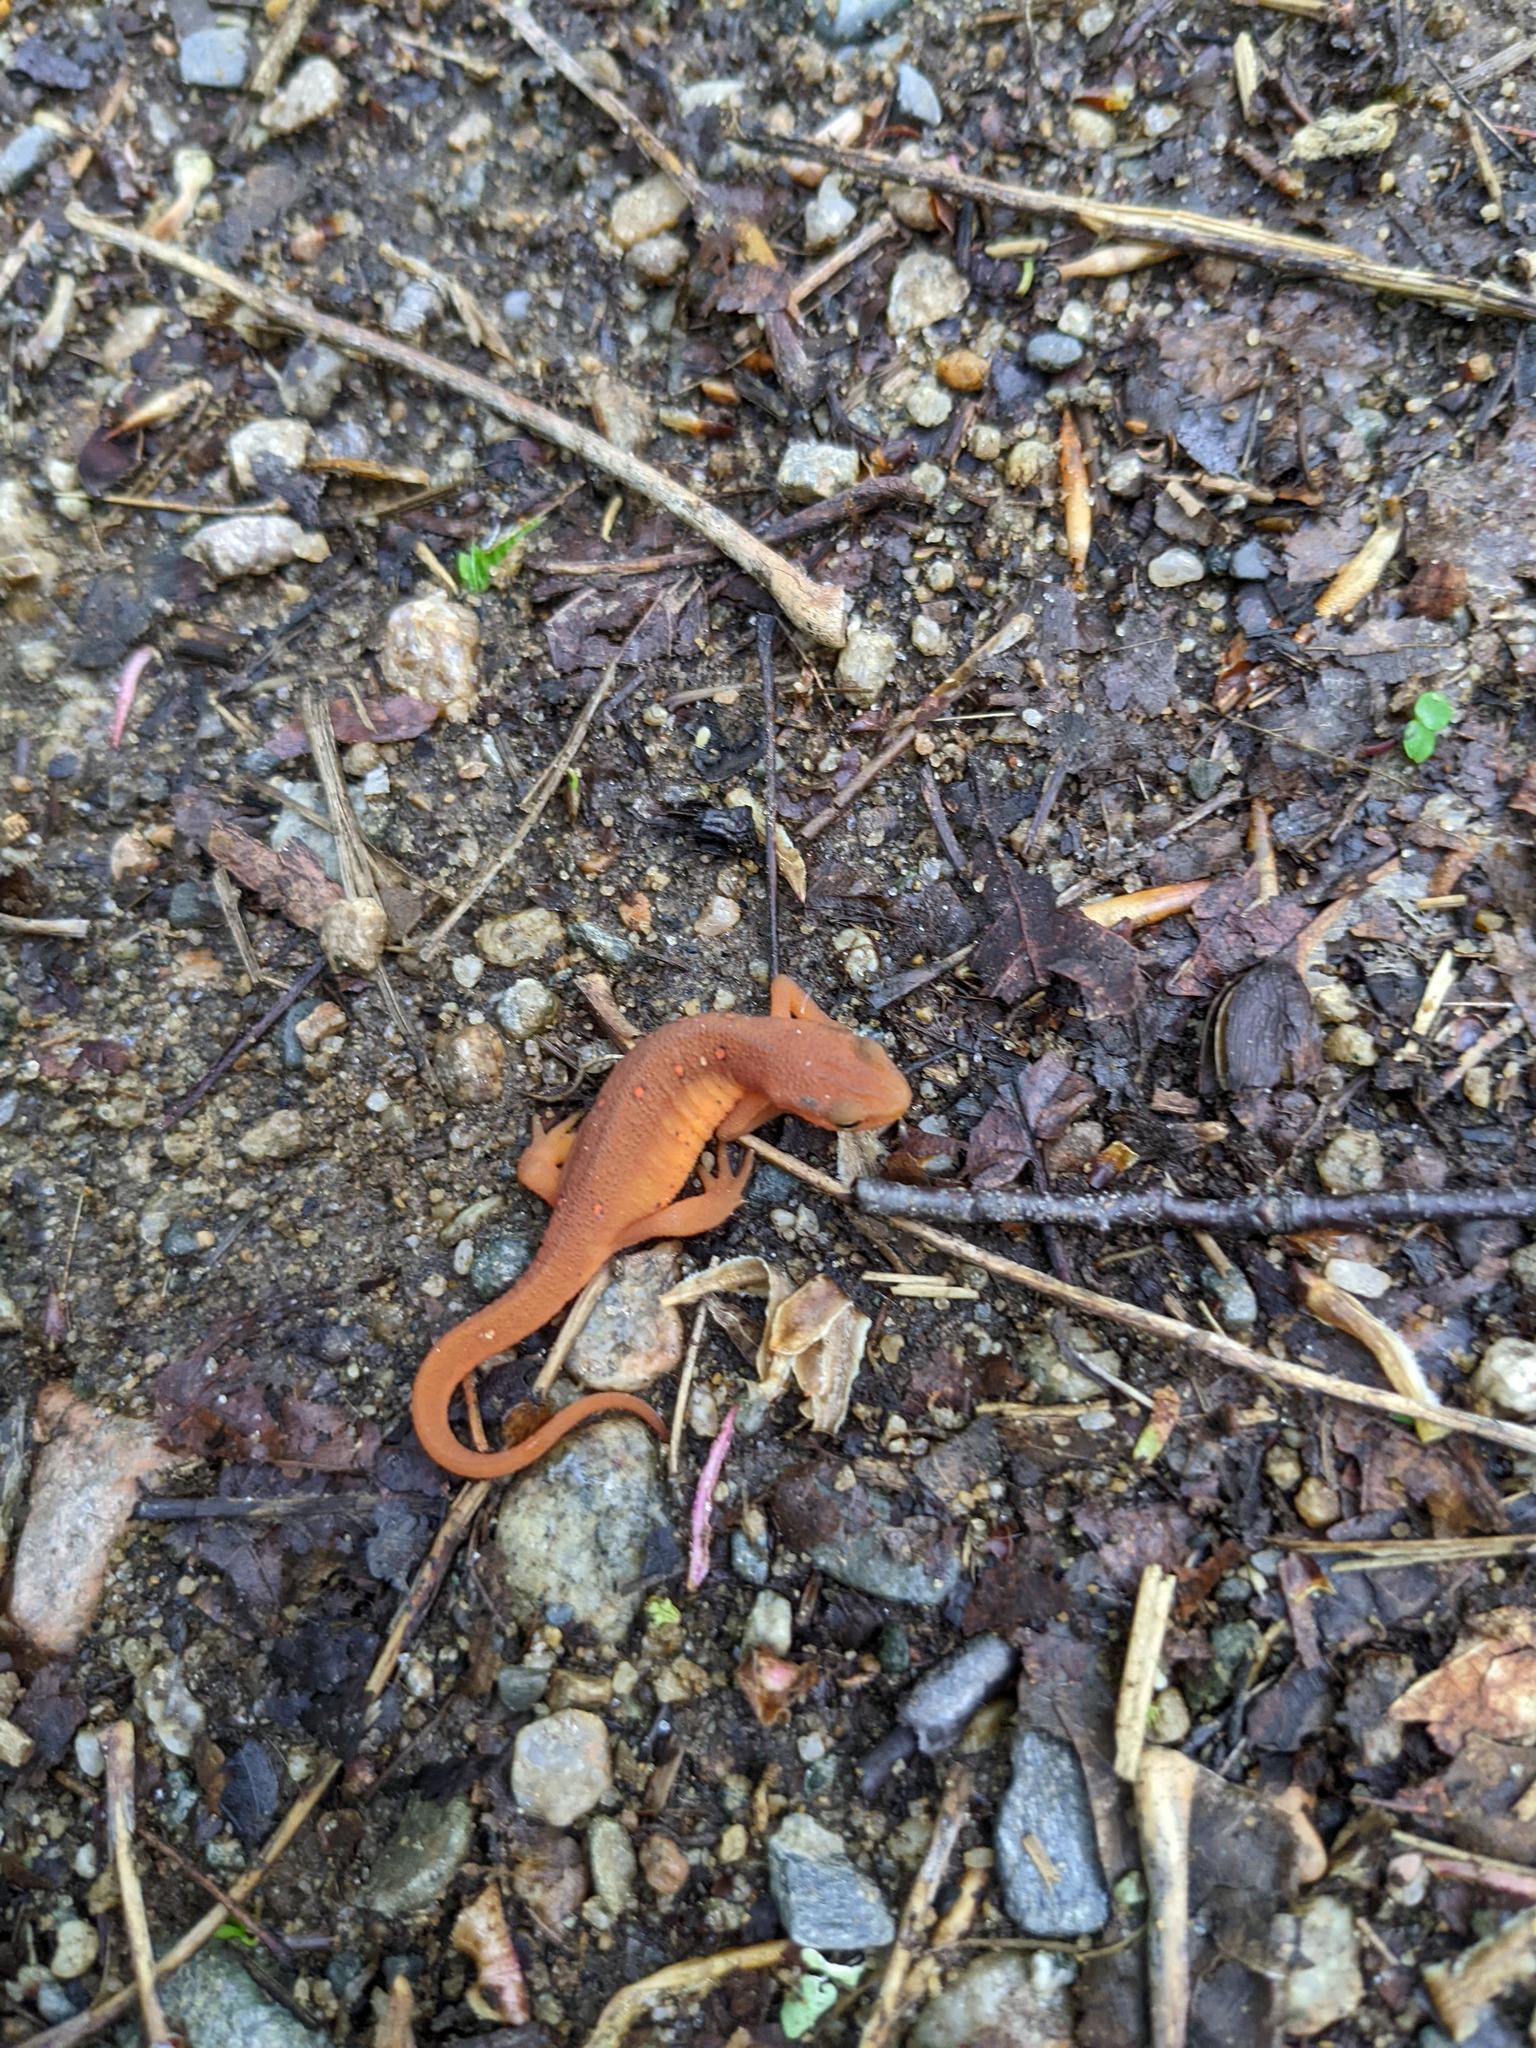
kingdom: Animalia
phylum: Chordata
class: Amphibia
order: Caudata
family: Salamandridae
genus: Notophthalmus
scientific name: Notophthalmus viridescens
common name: Eastern newt
